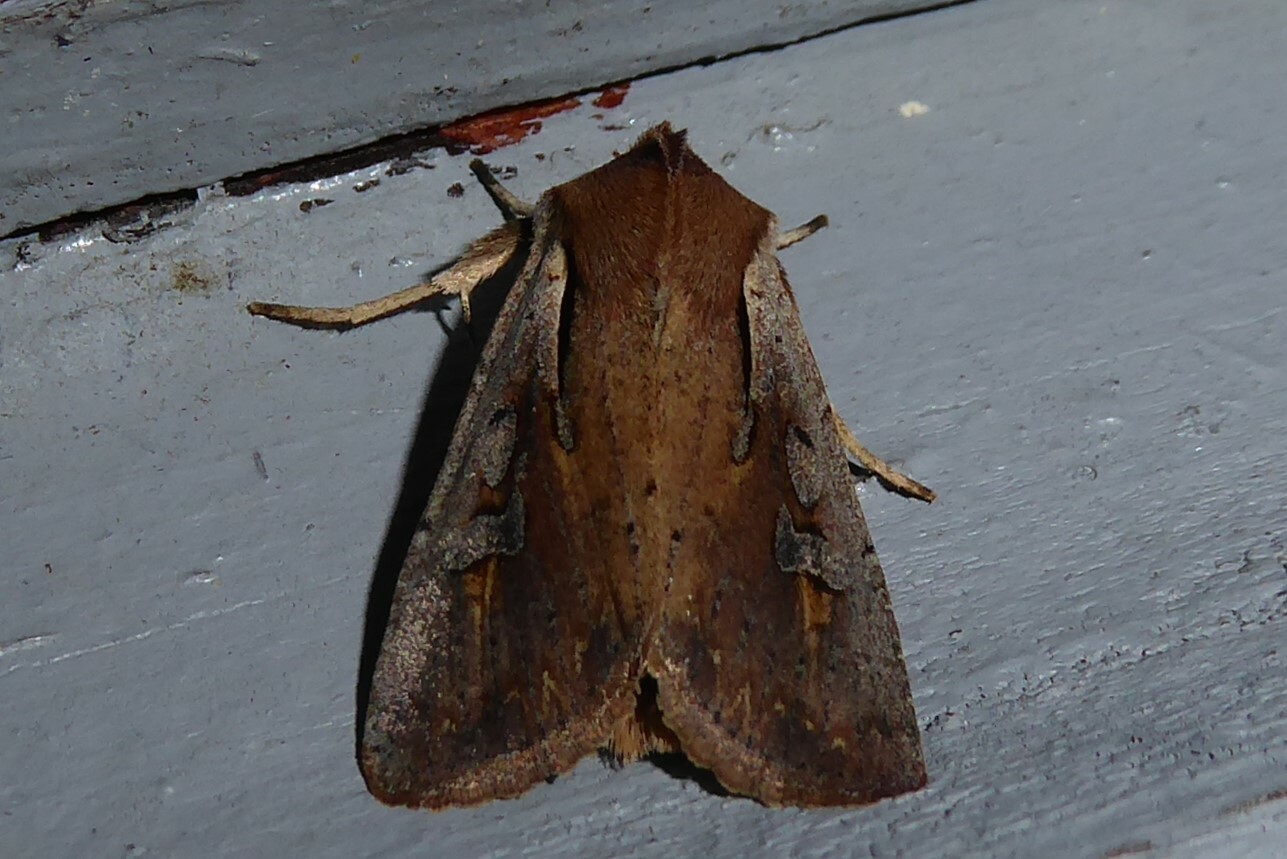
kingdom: Animalia
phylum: Arthropoda
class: Insecta
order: Lepidoptera
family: Noctuidae
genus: Ichneutica
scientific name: Ichneutica atristriga
